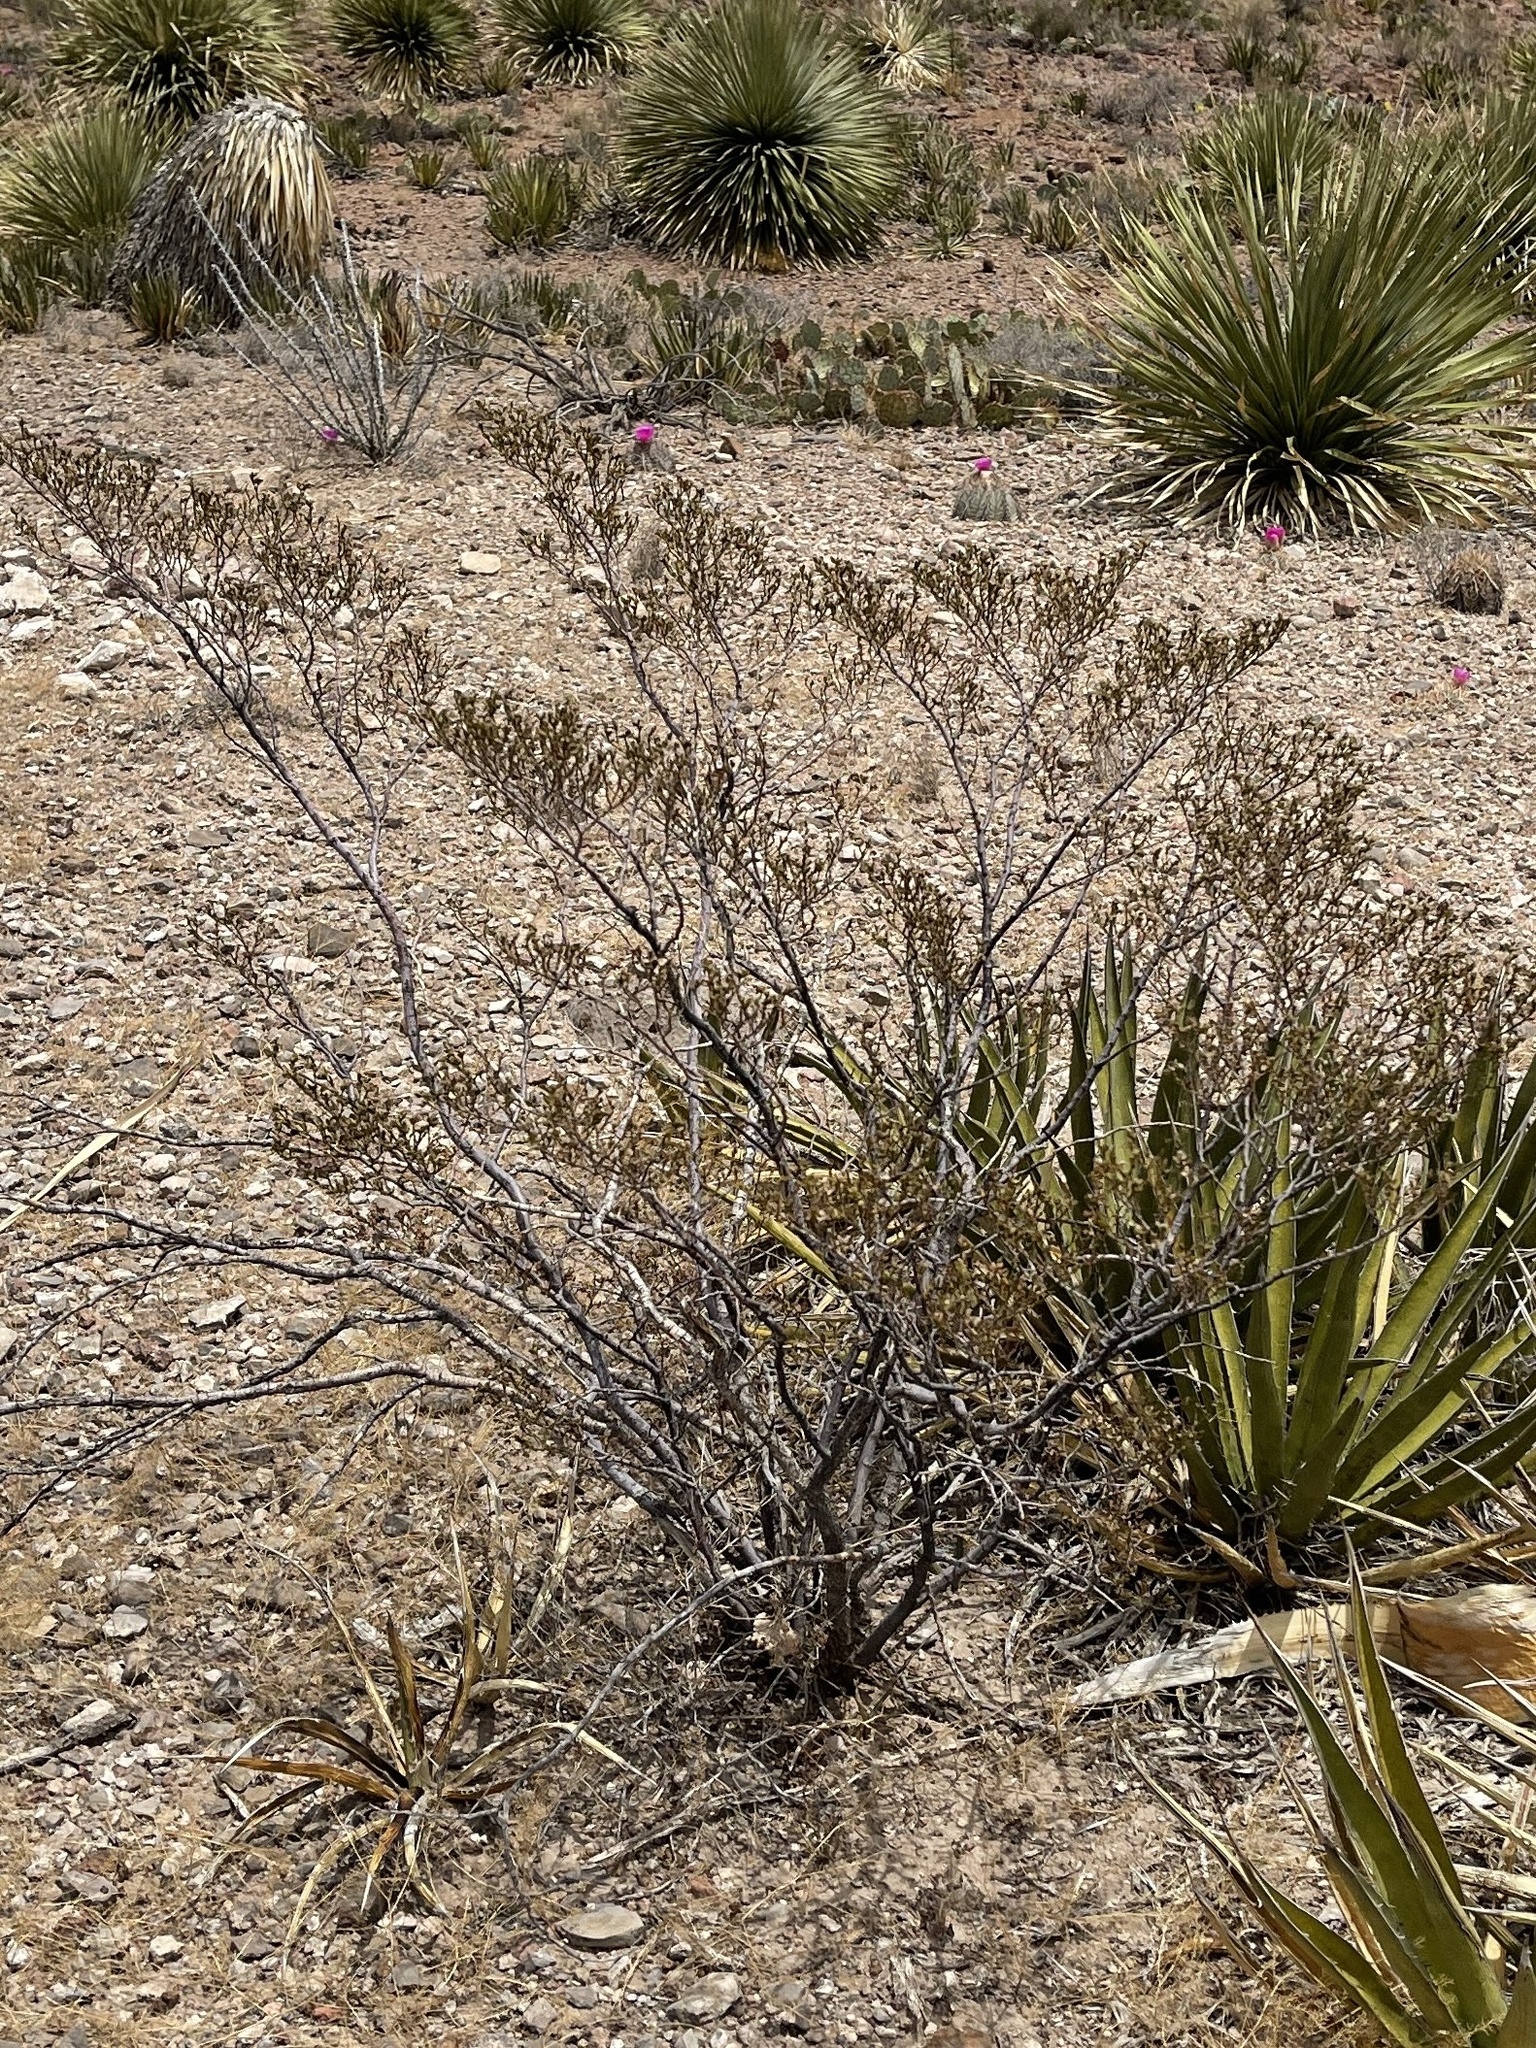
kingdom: Plantae
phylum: Tracheophyta
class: Magnoliopsida
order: Zygophyllales
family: Zygophyllaceae
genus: Larrea
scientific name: Larrea tridentata
